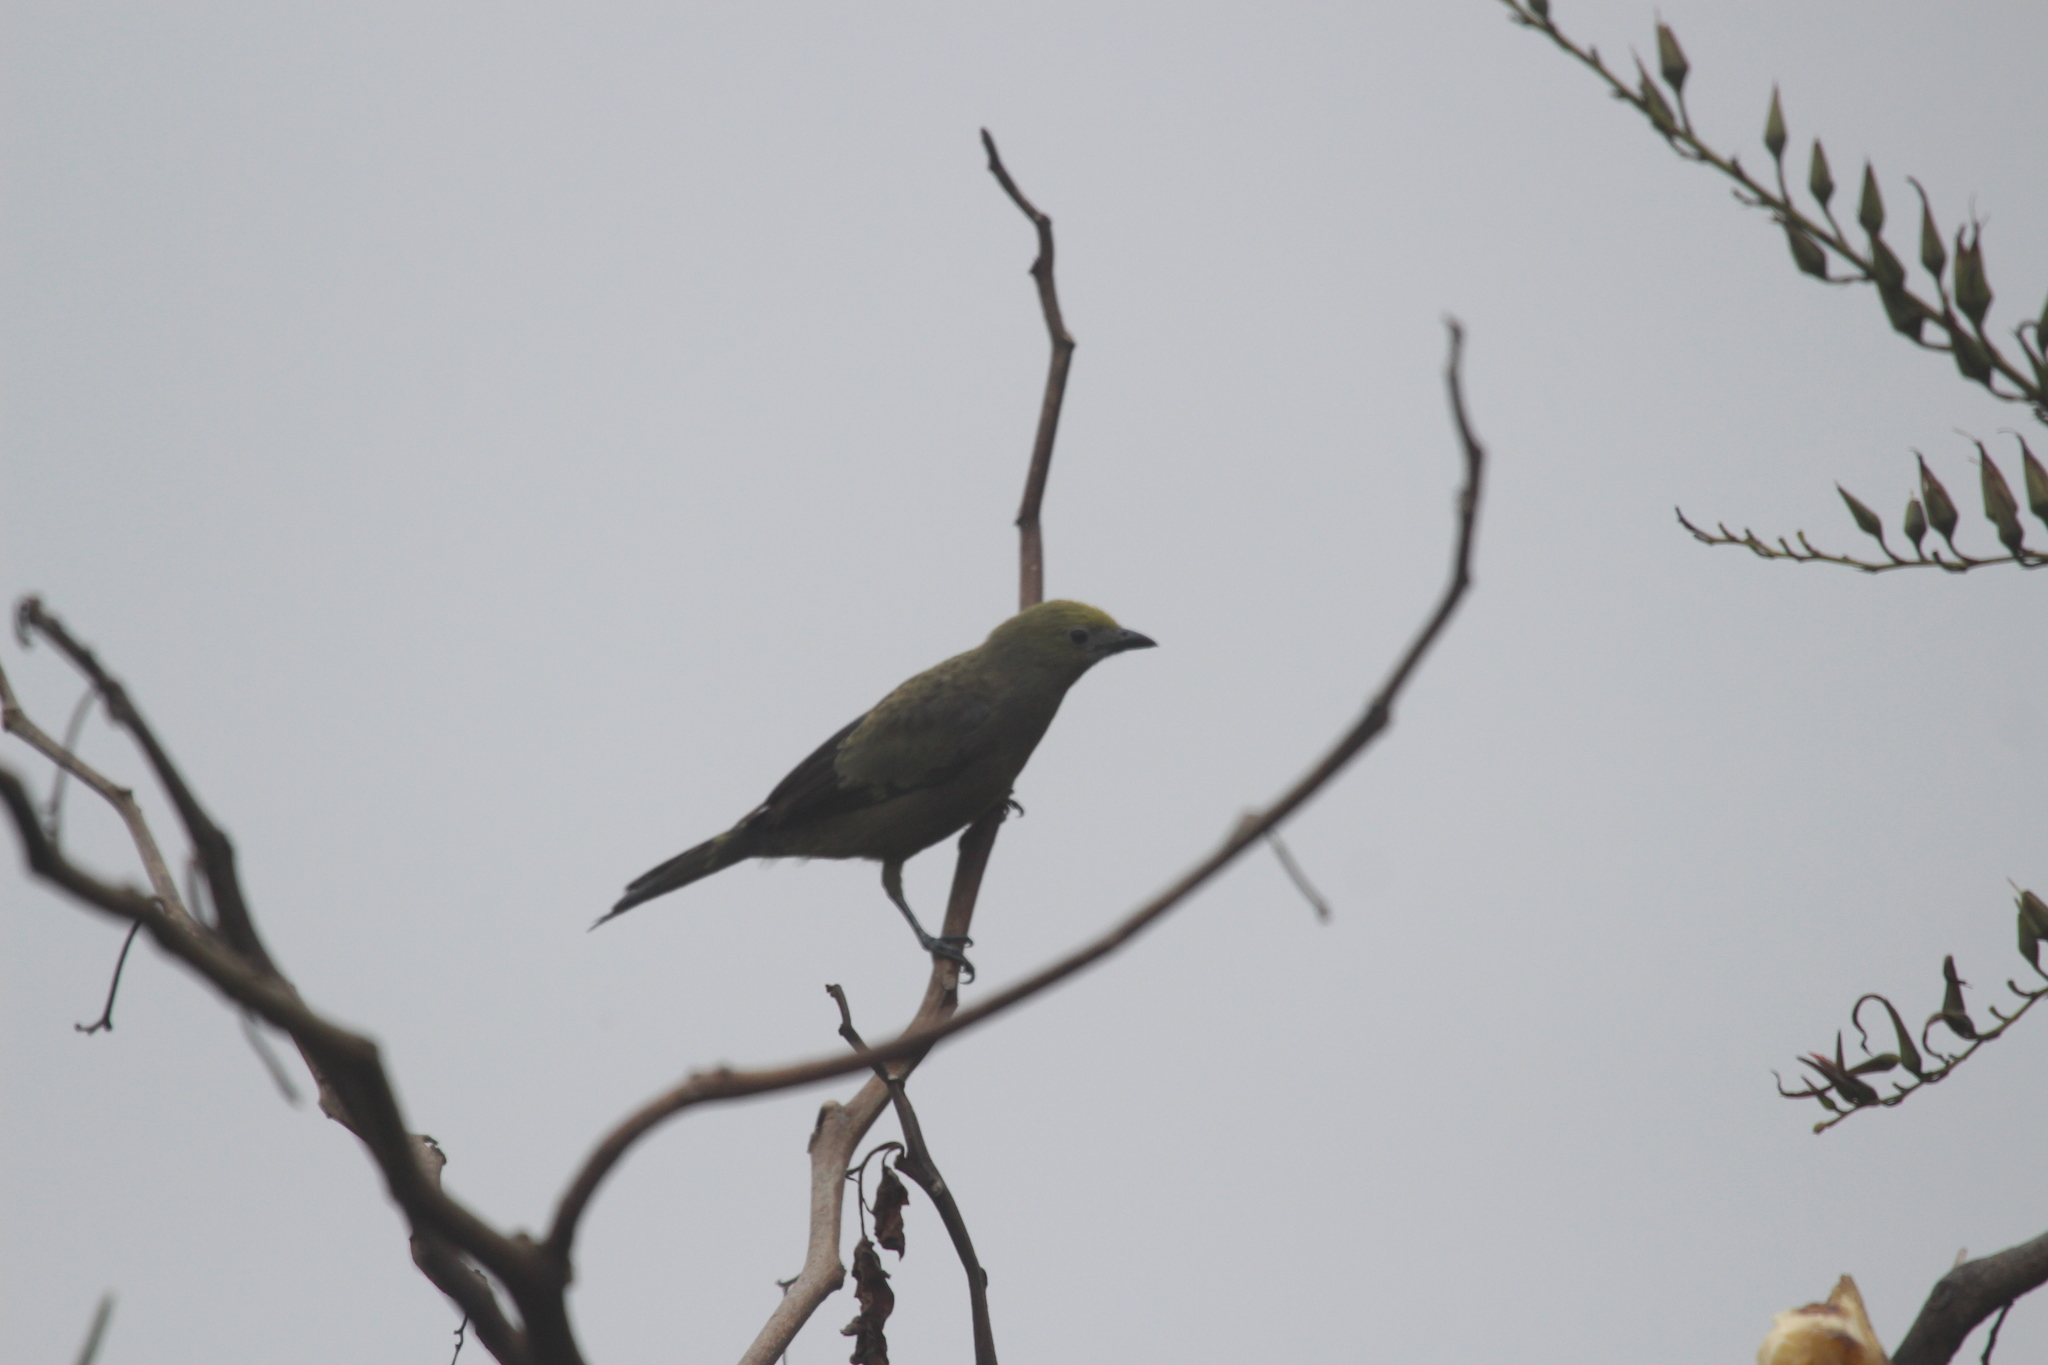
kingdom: Animalia
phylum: Chordata
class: Aves
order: Passeriformes
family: Thraupidae
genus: Thraupis
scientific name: Thraupis palmarum
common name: Palm tanager
